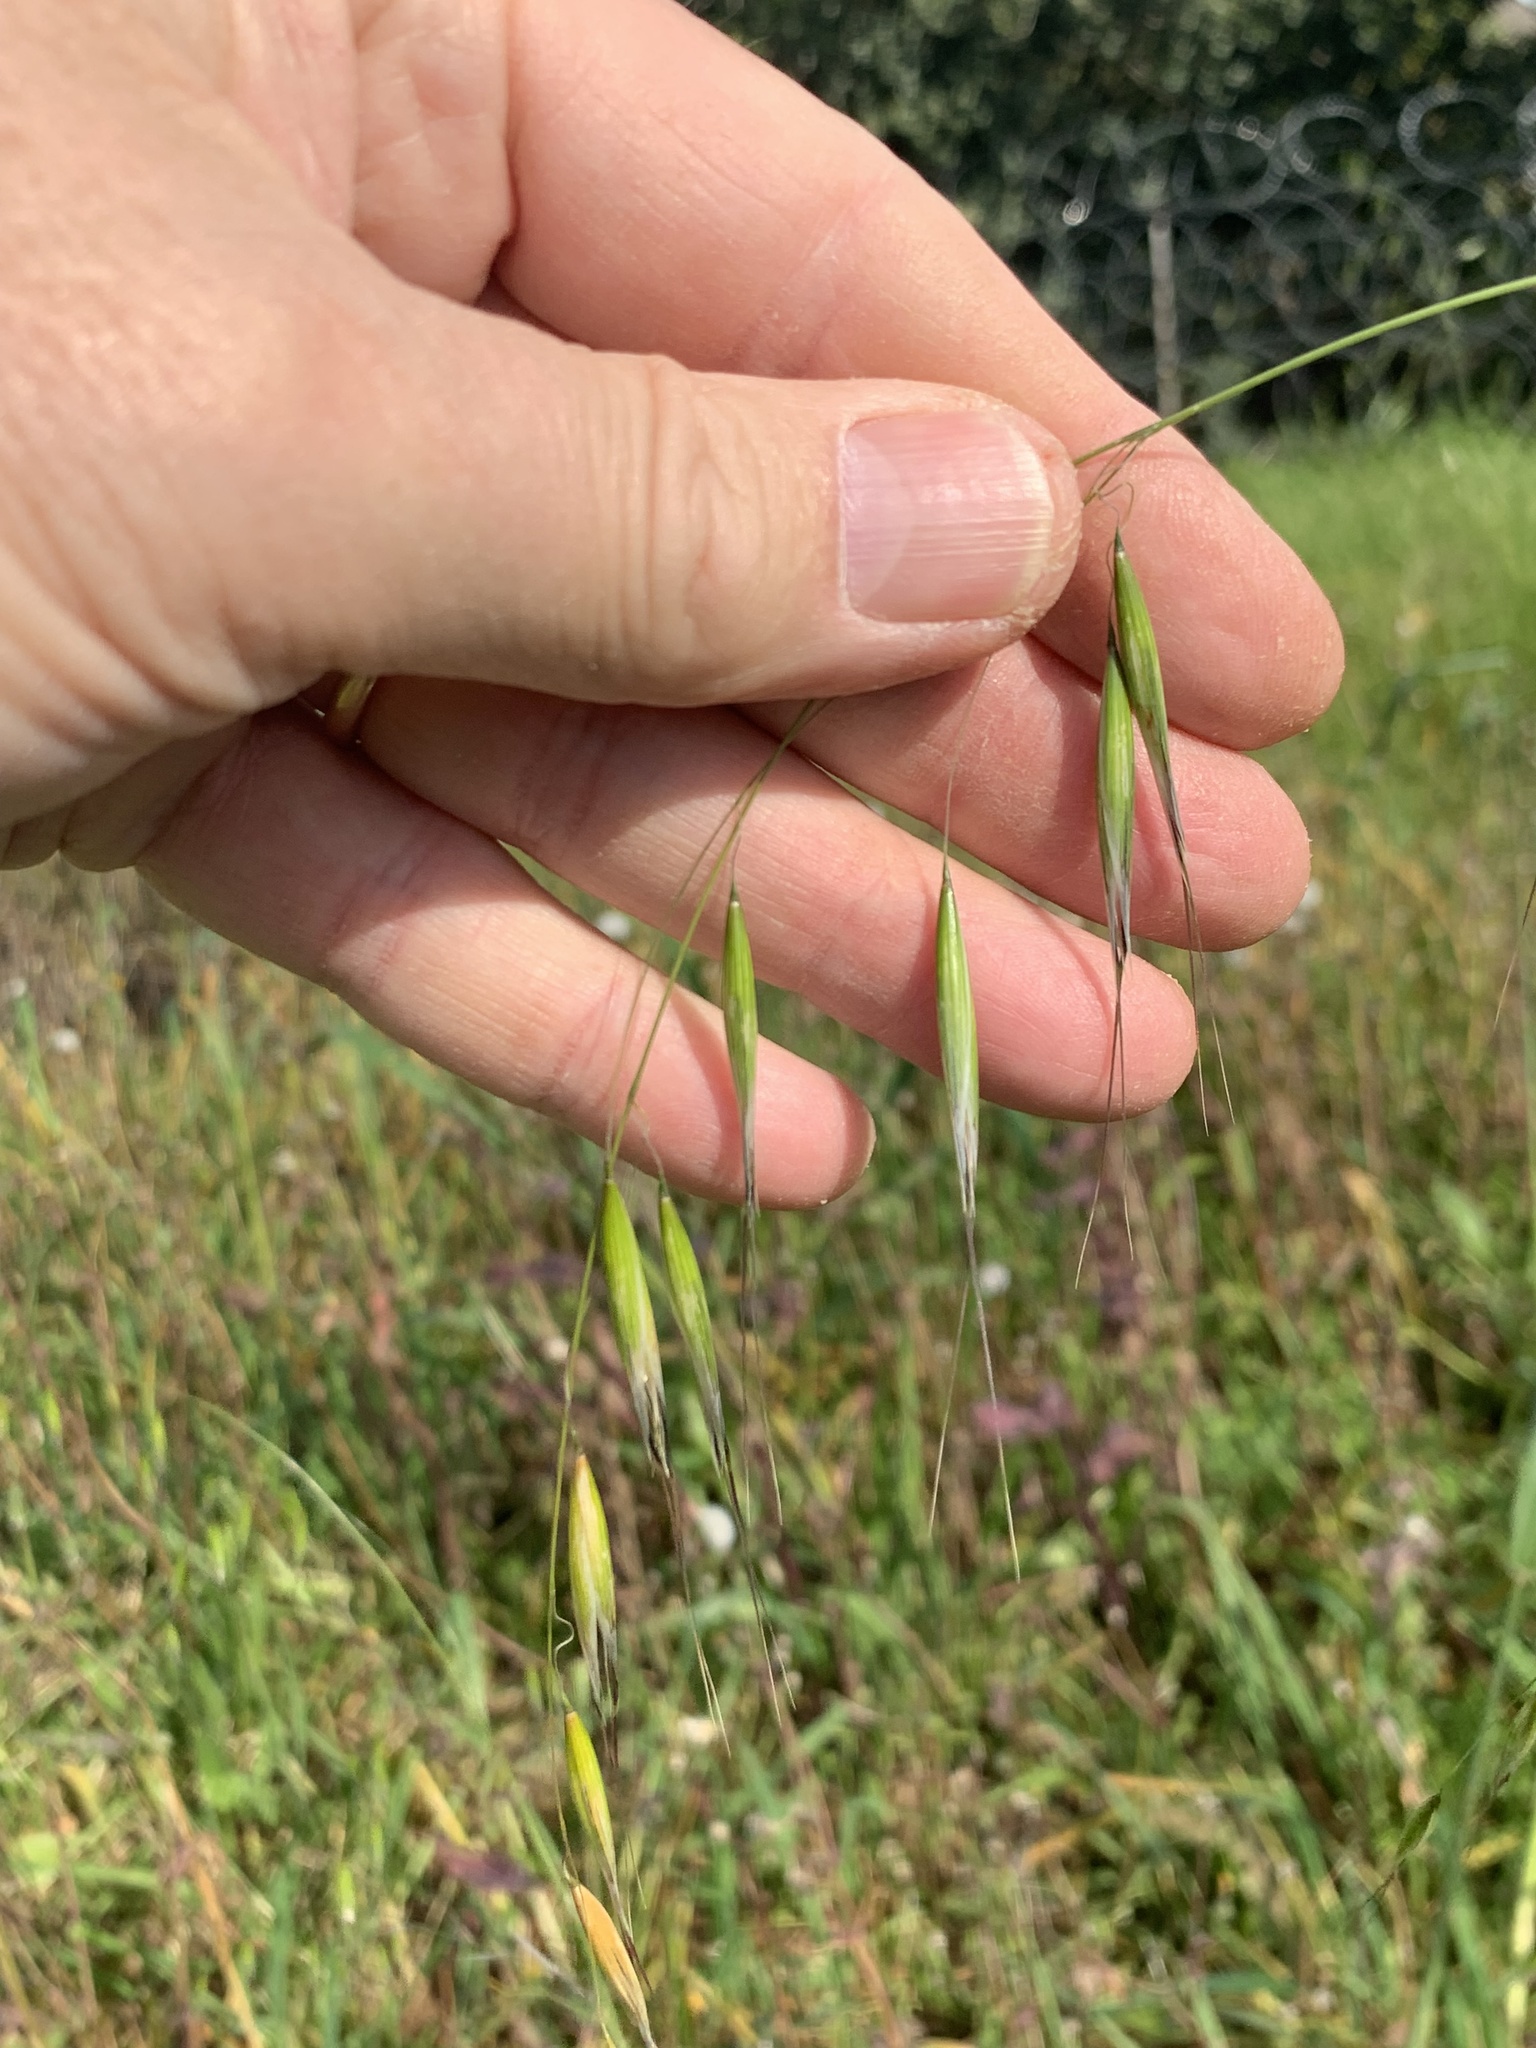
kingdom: Plantae
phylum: Tracheophyta
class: Liliopsida
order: Poales
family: Poaceae
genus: Avena
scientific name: Avena fatua
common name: Wild oat
